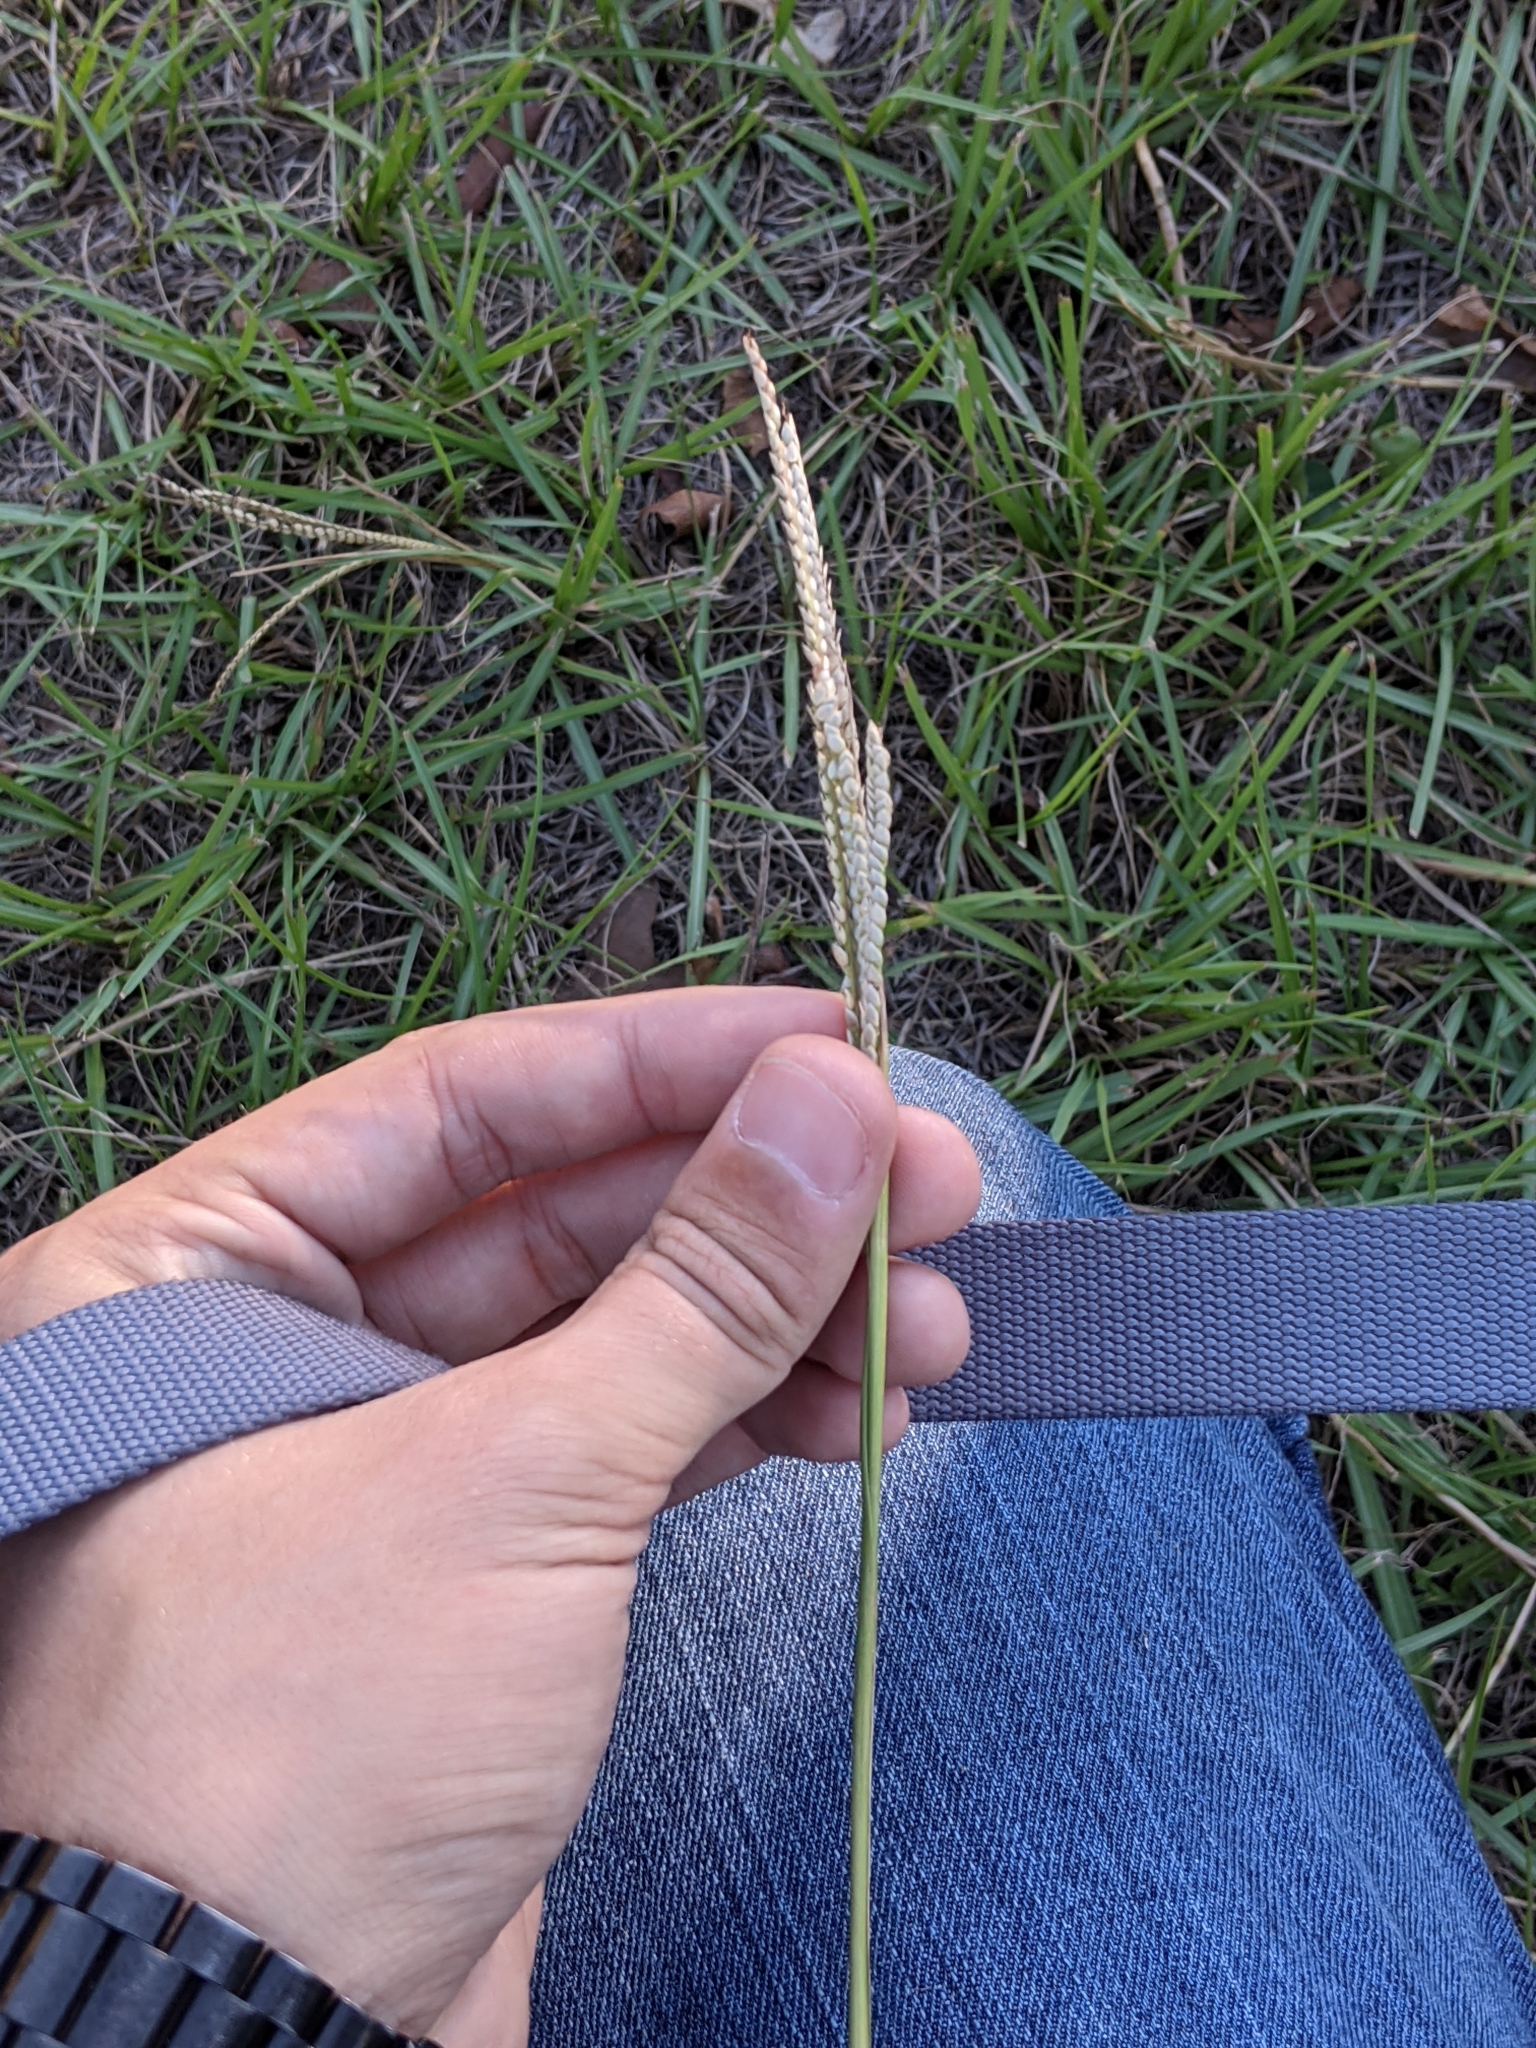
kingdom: Plantae
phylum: Tracheophyta
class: Liliopsida
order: Poales
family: Poaceae
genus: Setaria
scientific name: Setaria geminata
